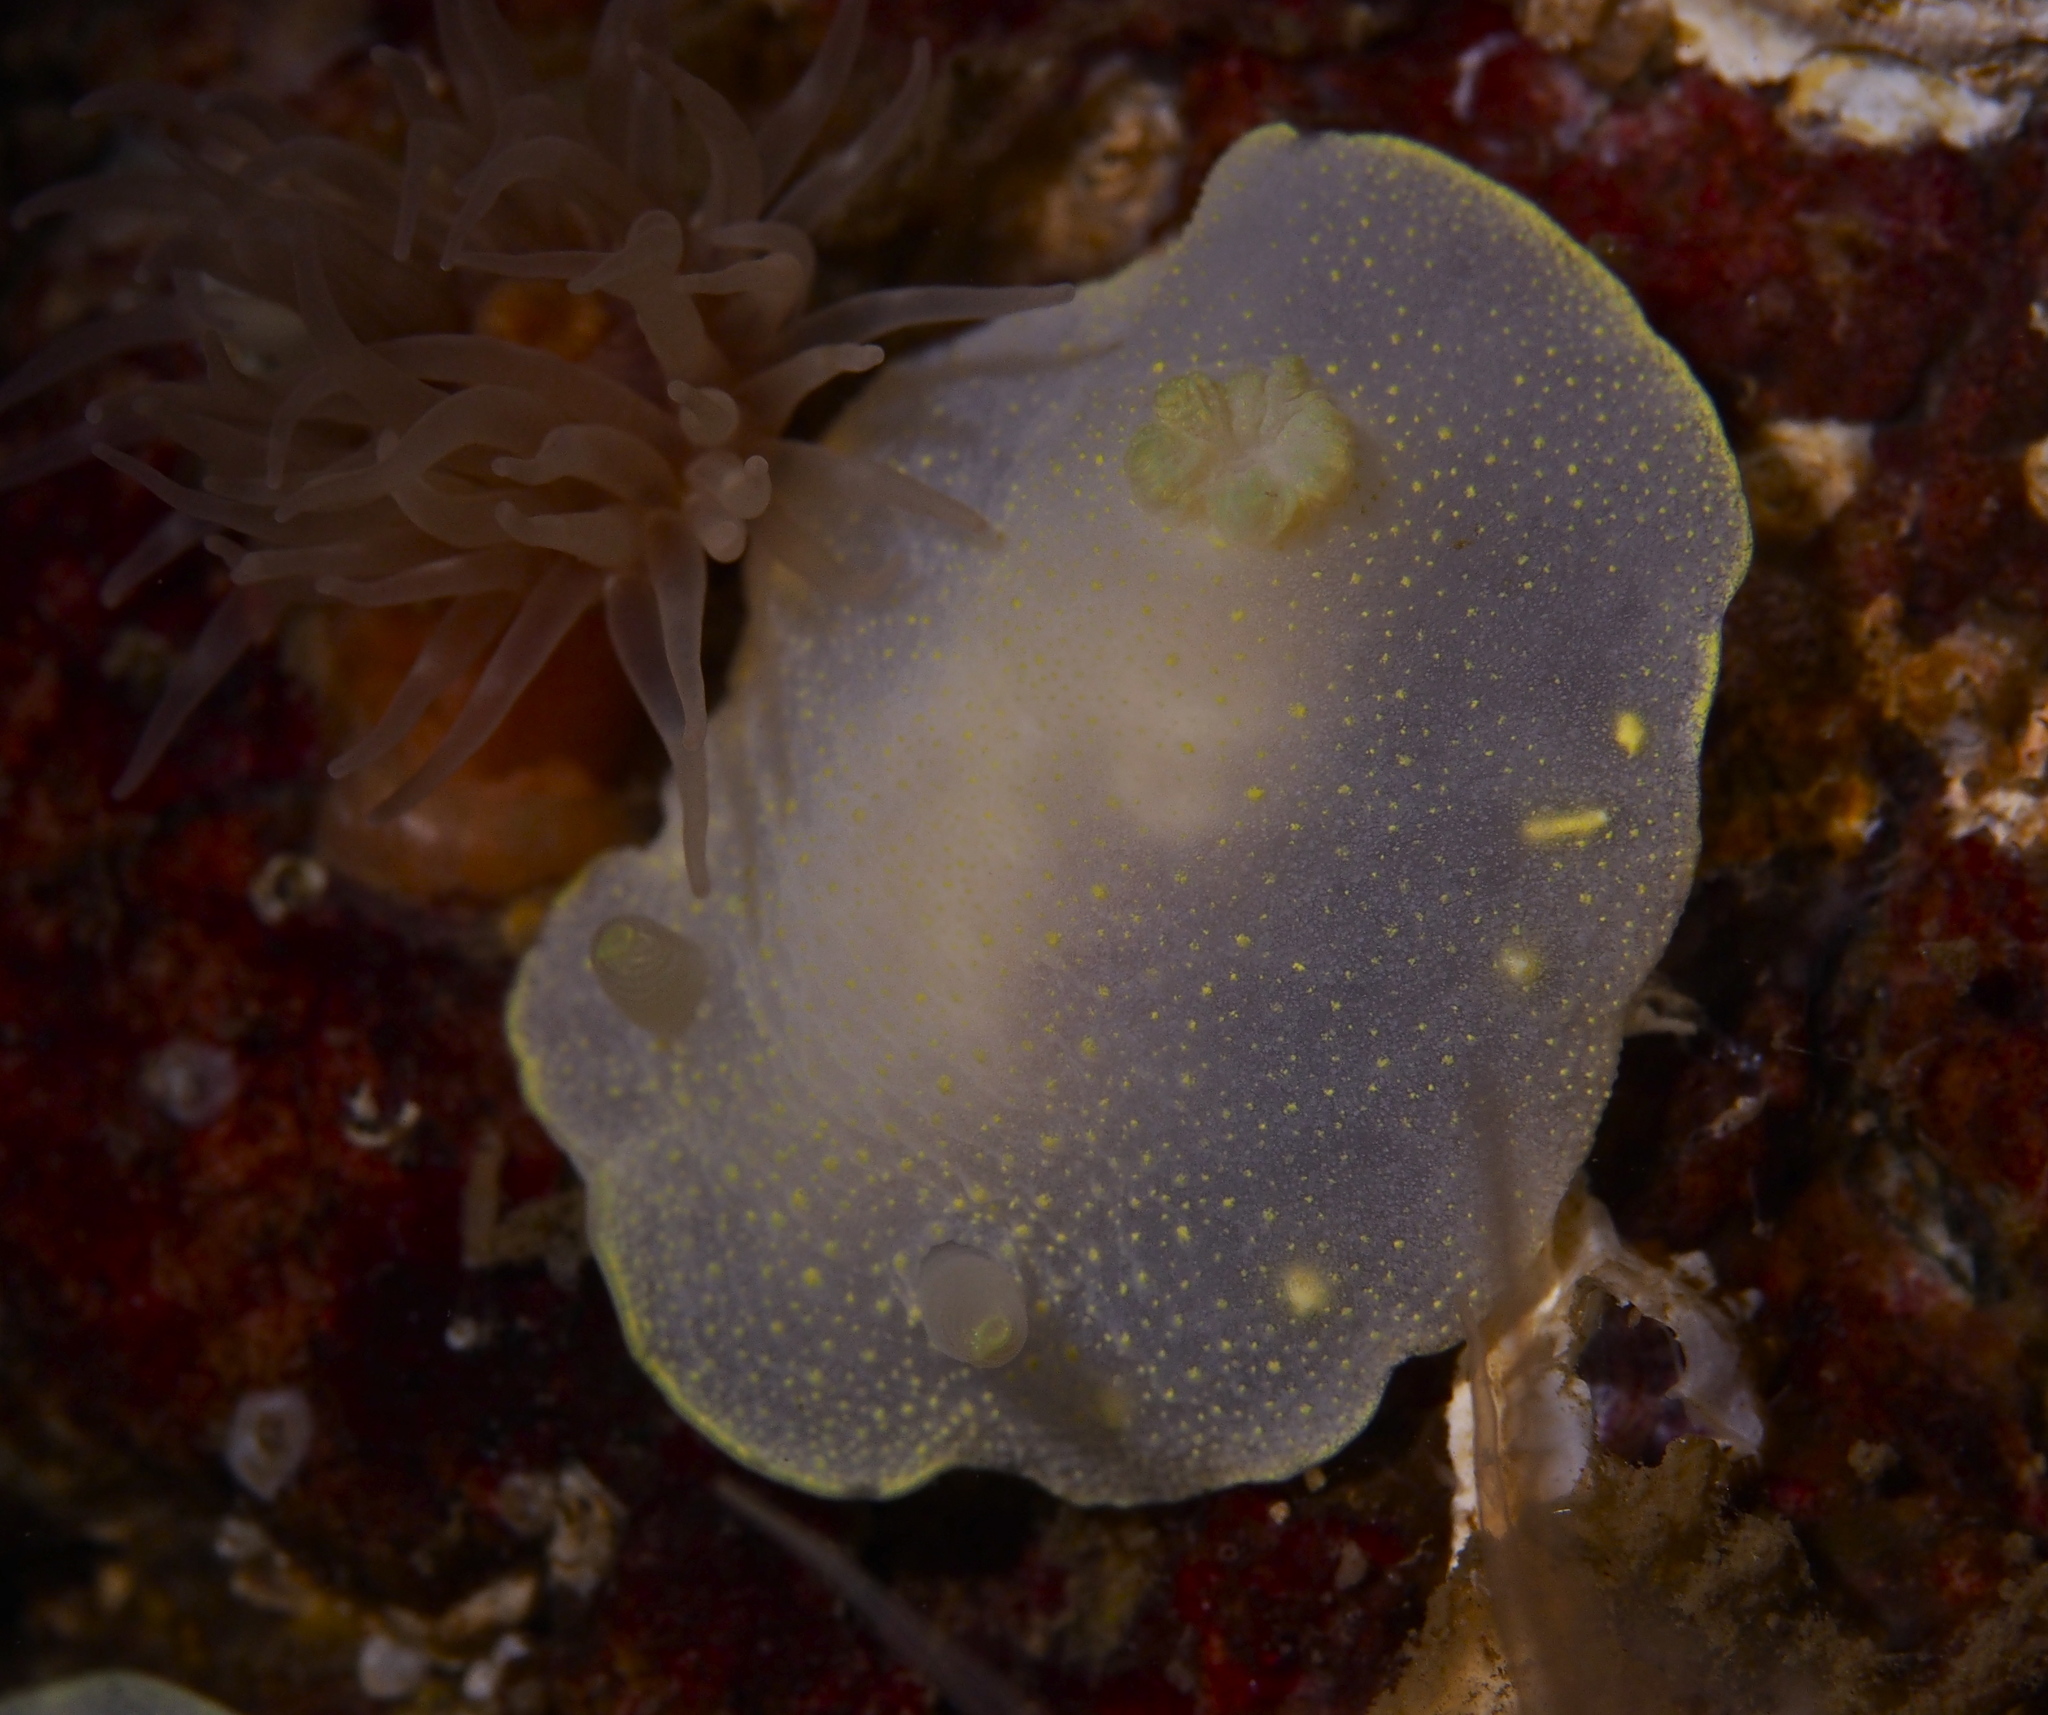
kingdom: Animalia
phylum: Mollusca
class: Gastropoda
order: Nudibranchia
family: Cadlinidae
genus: Cadlina
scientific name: Cadlina laevis
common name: White atlantic cadlina
